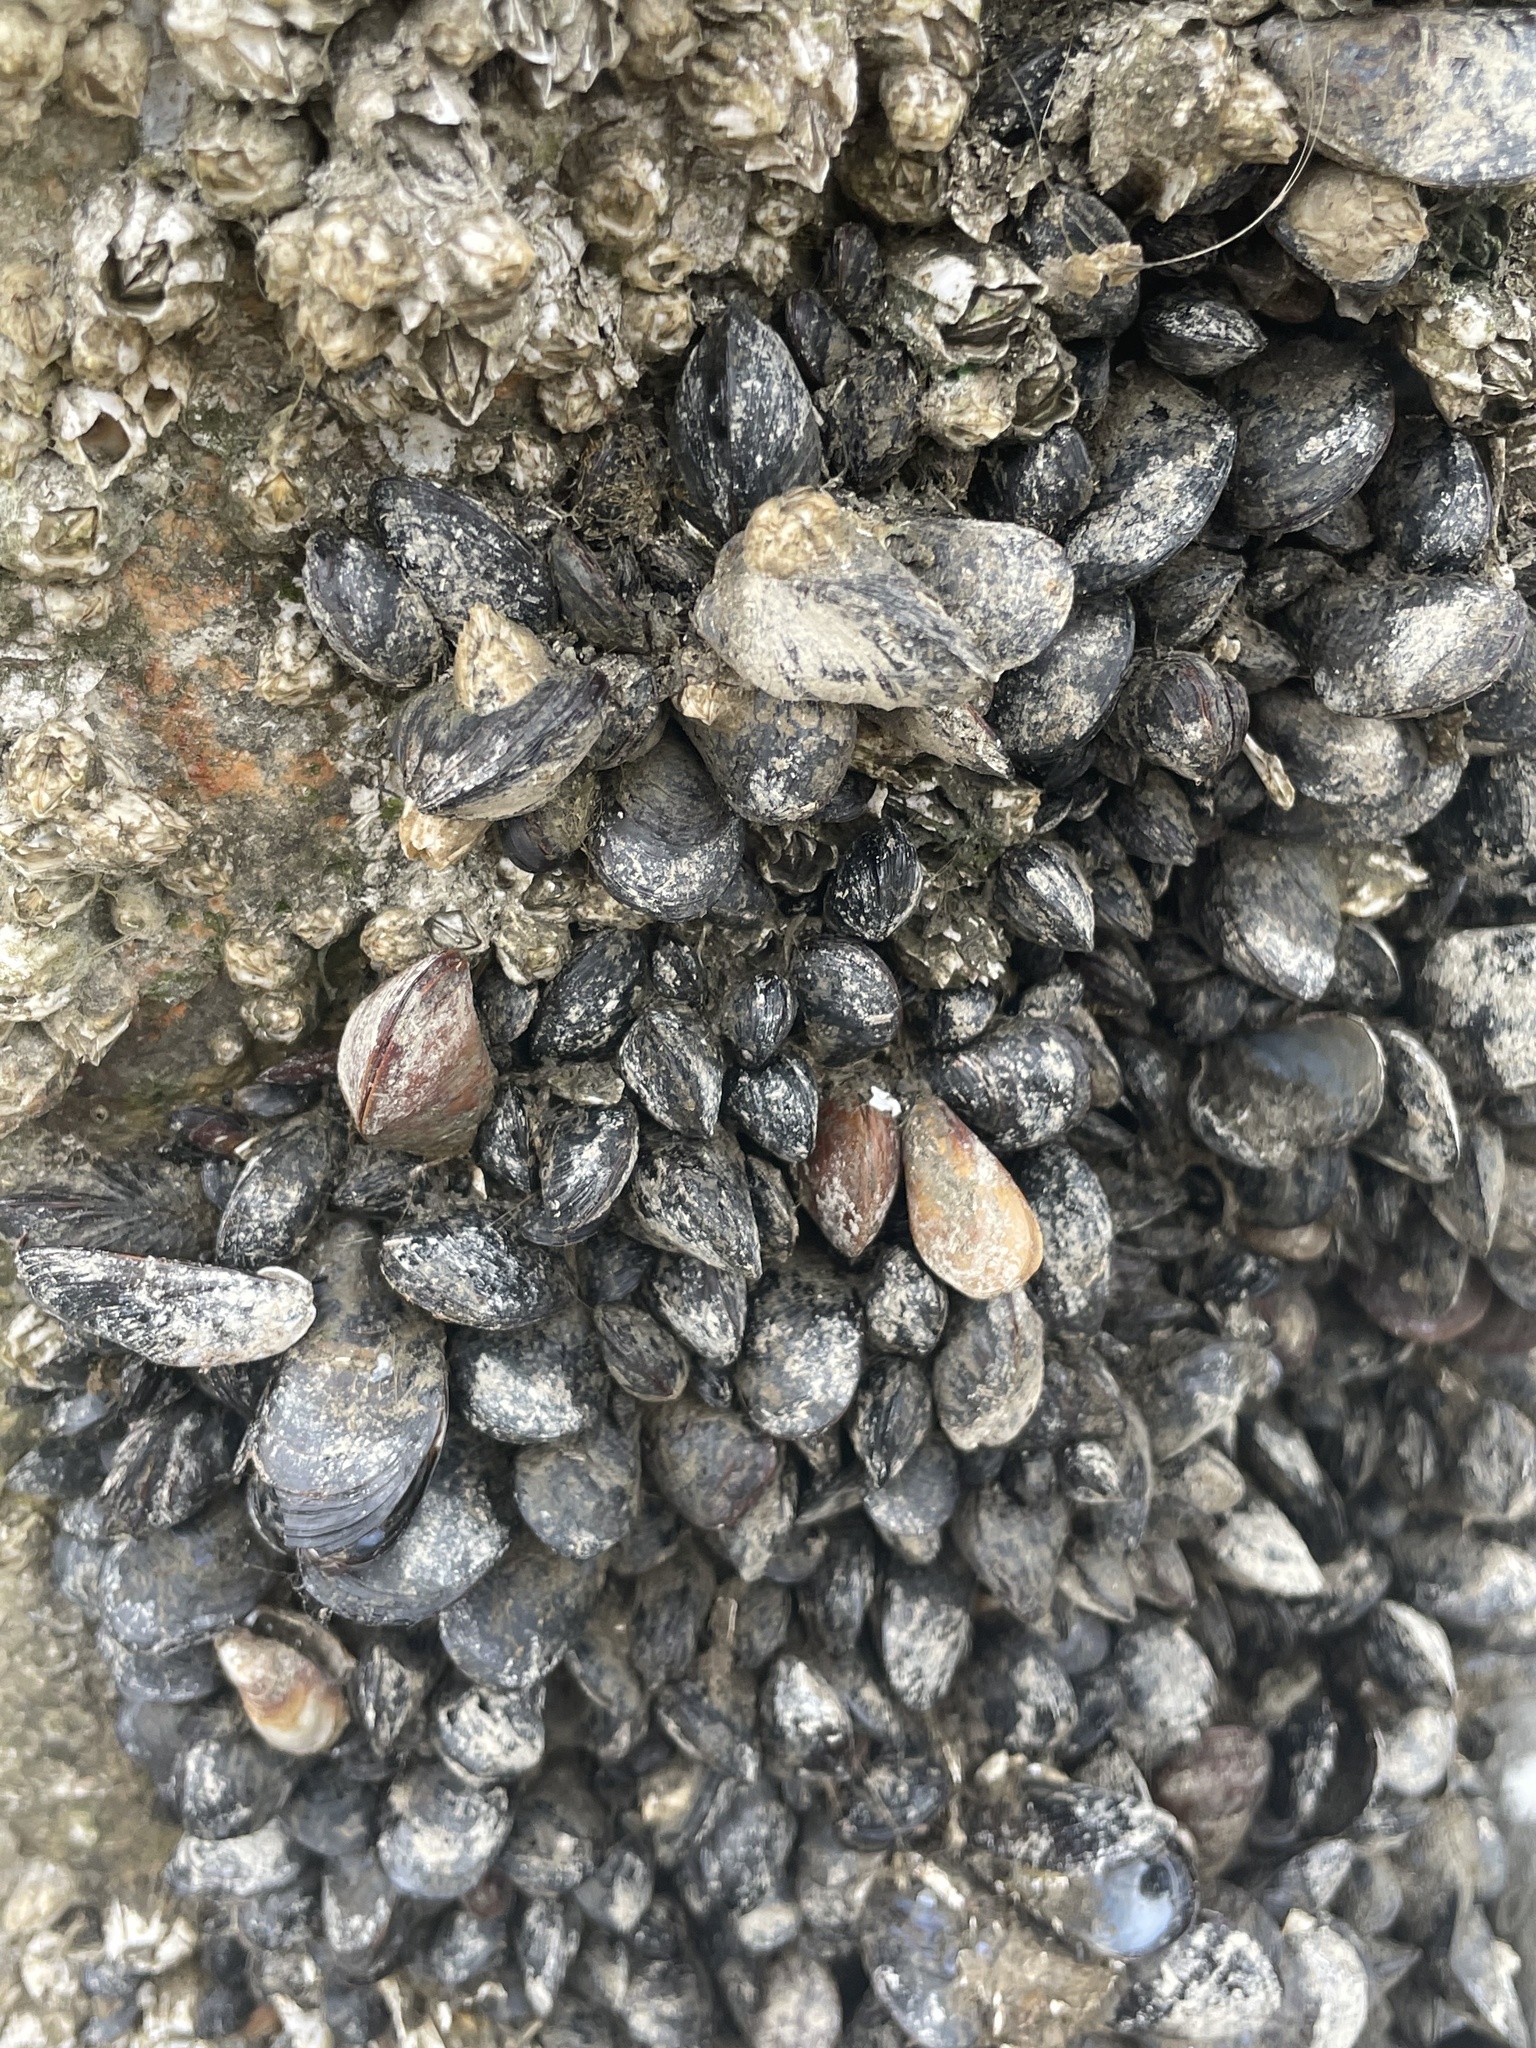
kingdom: Animalia
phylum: Mollusca
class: Bivalvia
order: Mytilida
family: Mytilidae
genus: Mytilus
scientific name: Mytilus trossulus
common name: Northern blue mussel
